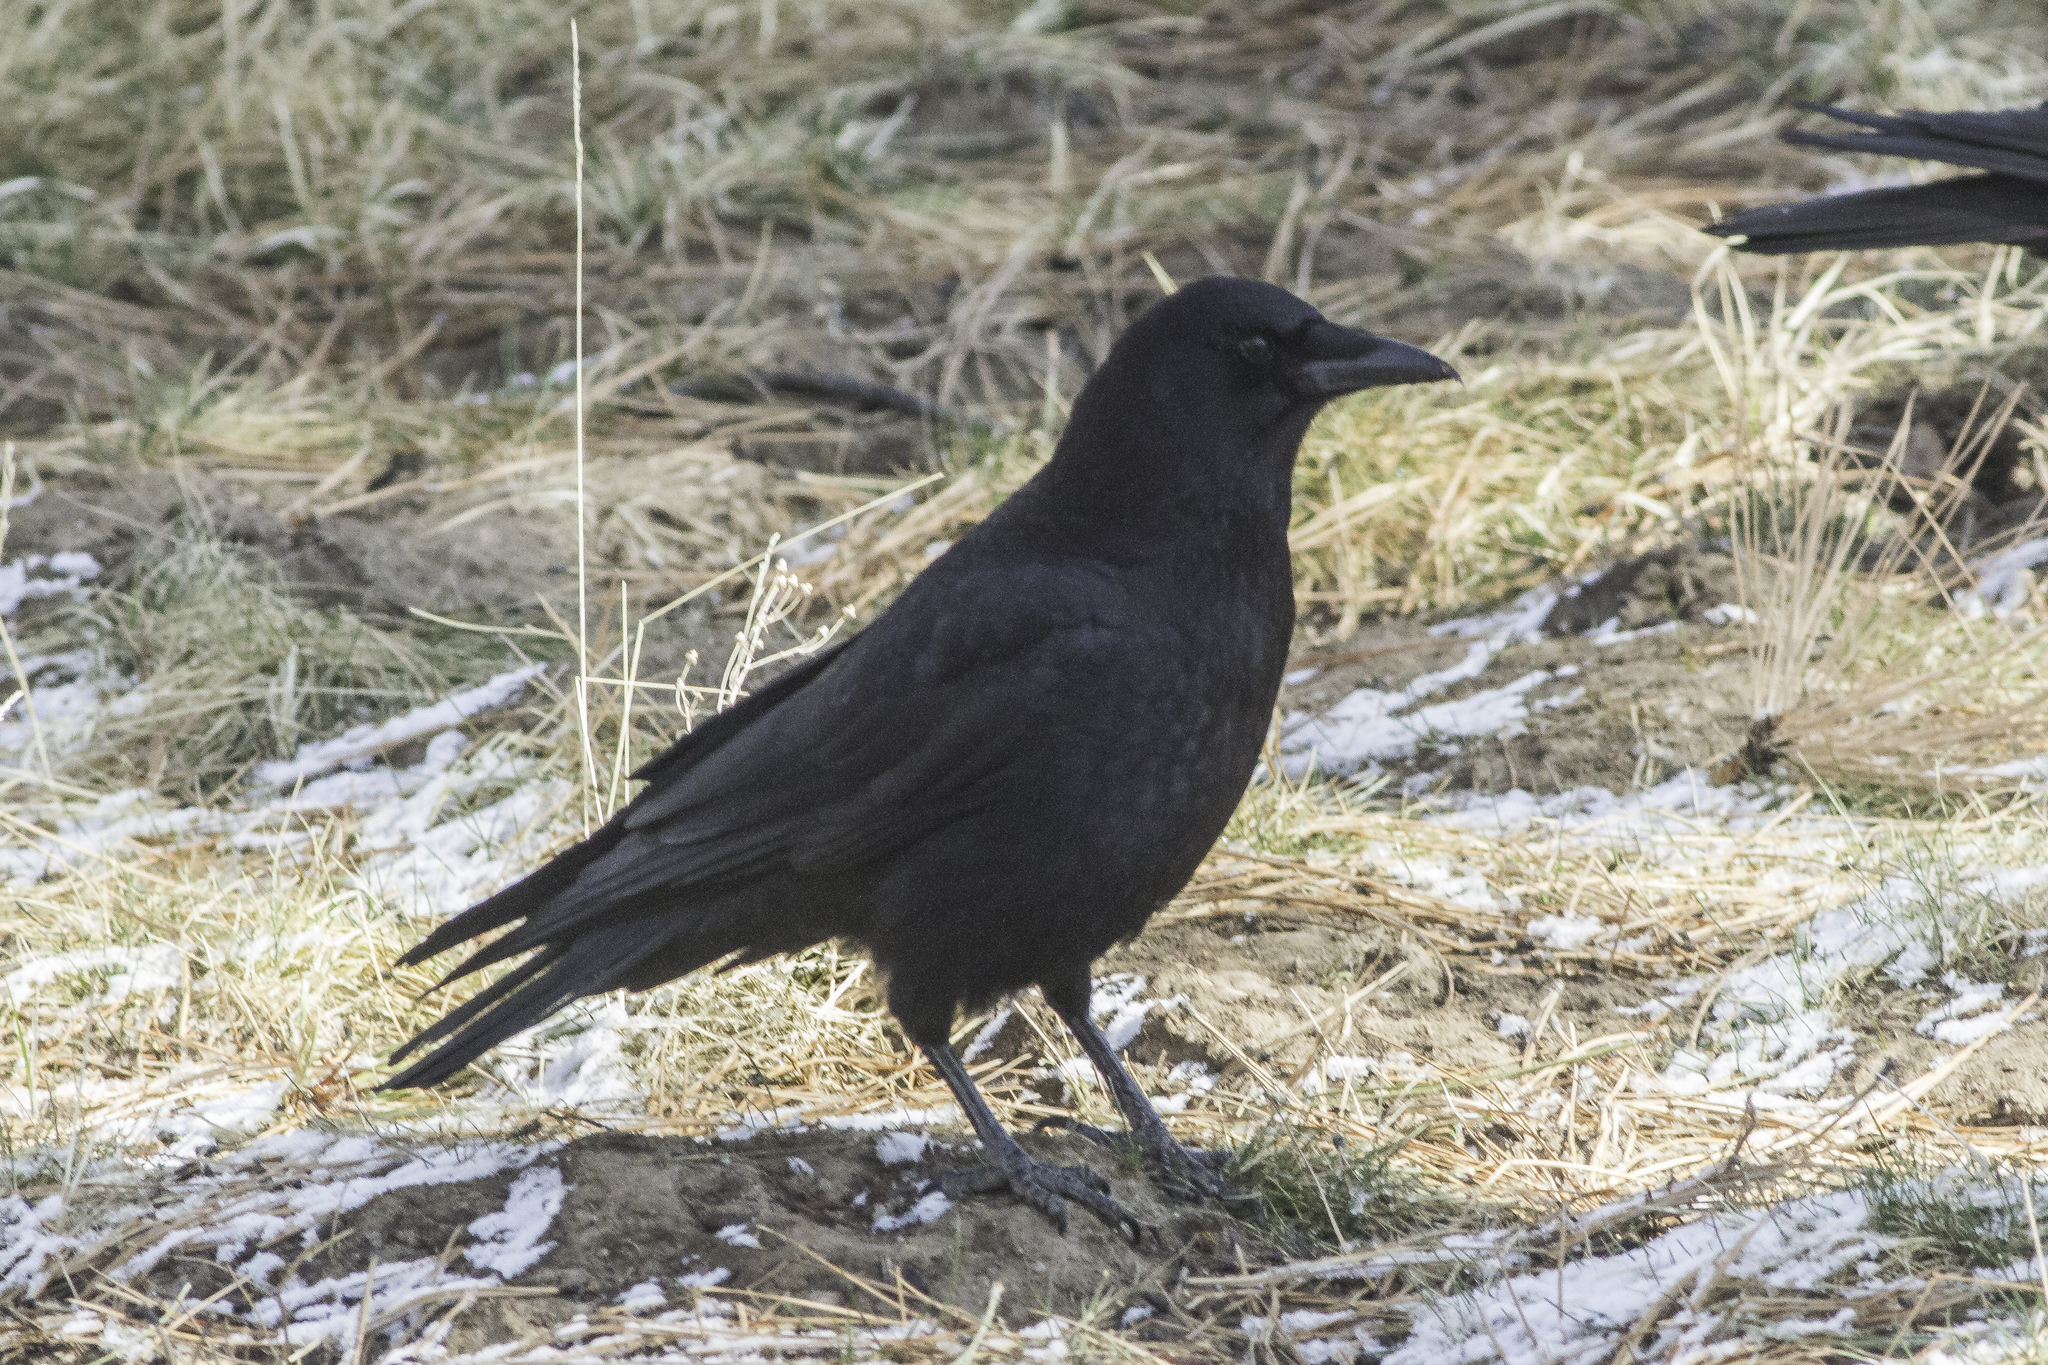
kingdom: Animalia
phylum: Chordata
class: Aves
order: Passeriformes
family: Corvidae
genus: Corvus
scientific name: Corvus brachyrhynchos
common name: American crow
